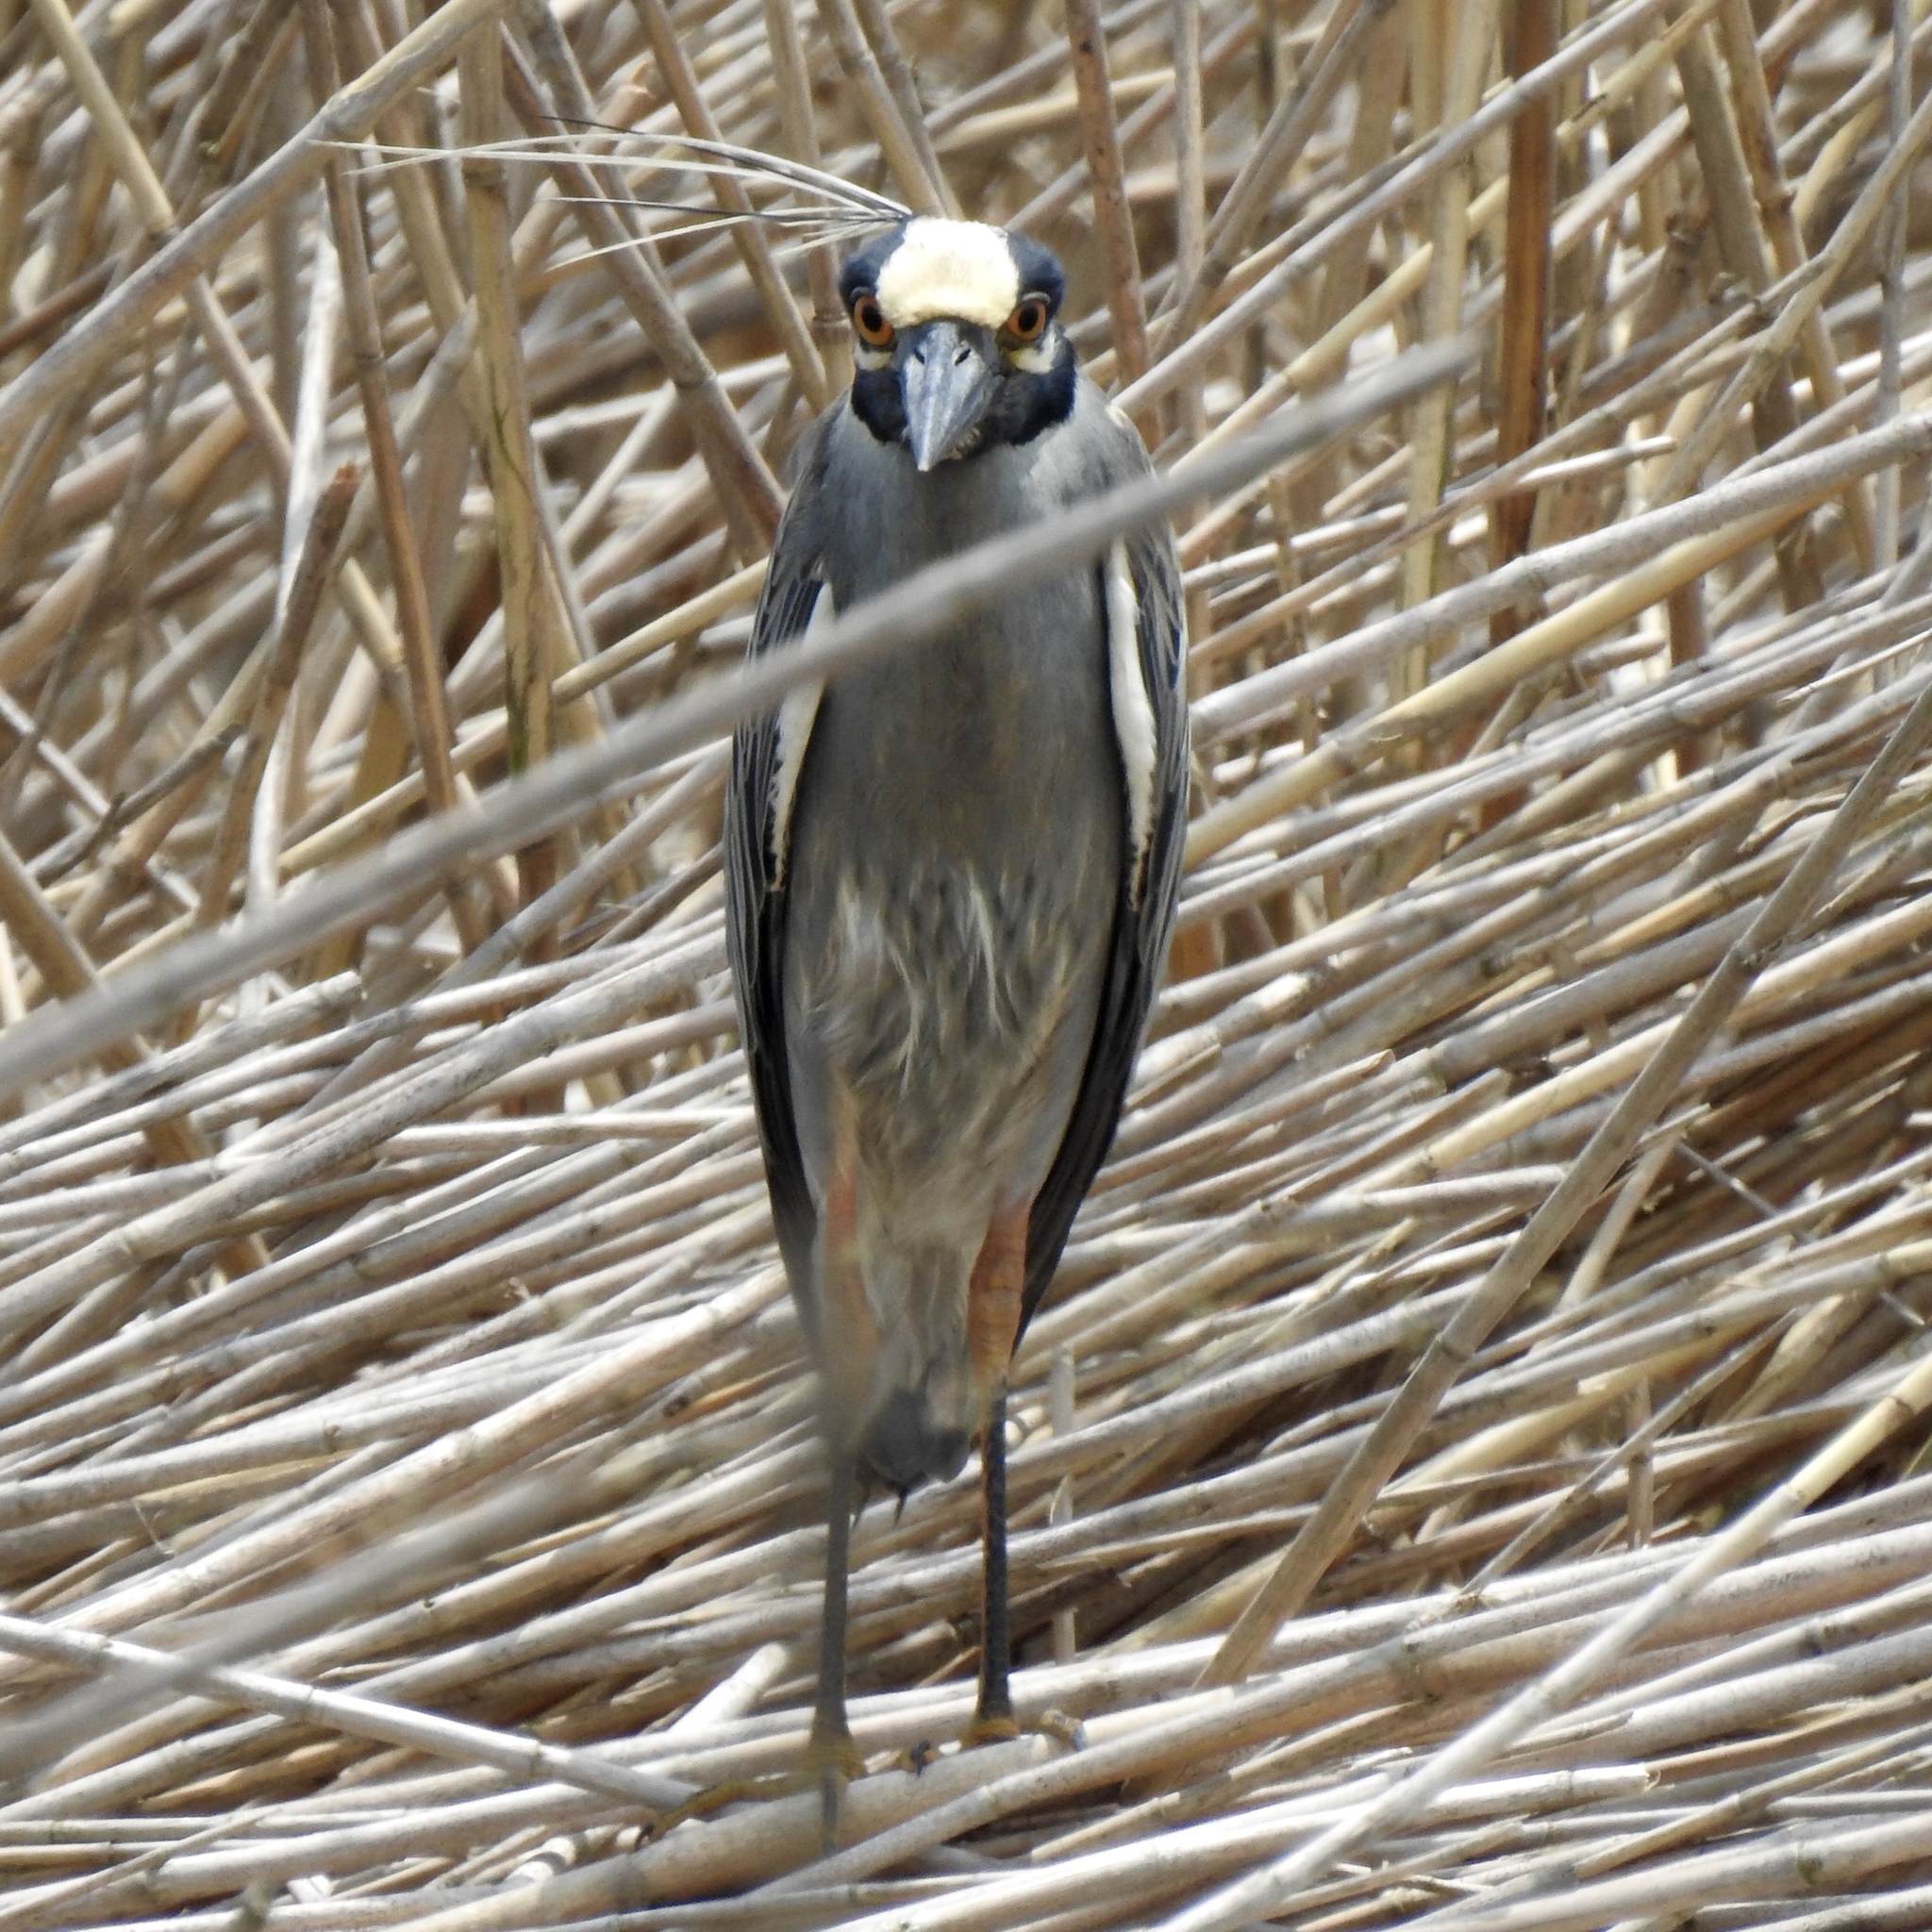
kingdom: Animalia
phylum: Chordata
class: Aves
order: Pelecaniformes
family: Ardeidae
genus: Nyctanassa
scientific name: Nyctanassa violacea
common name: Yellow-crowned night heron
